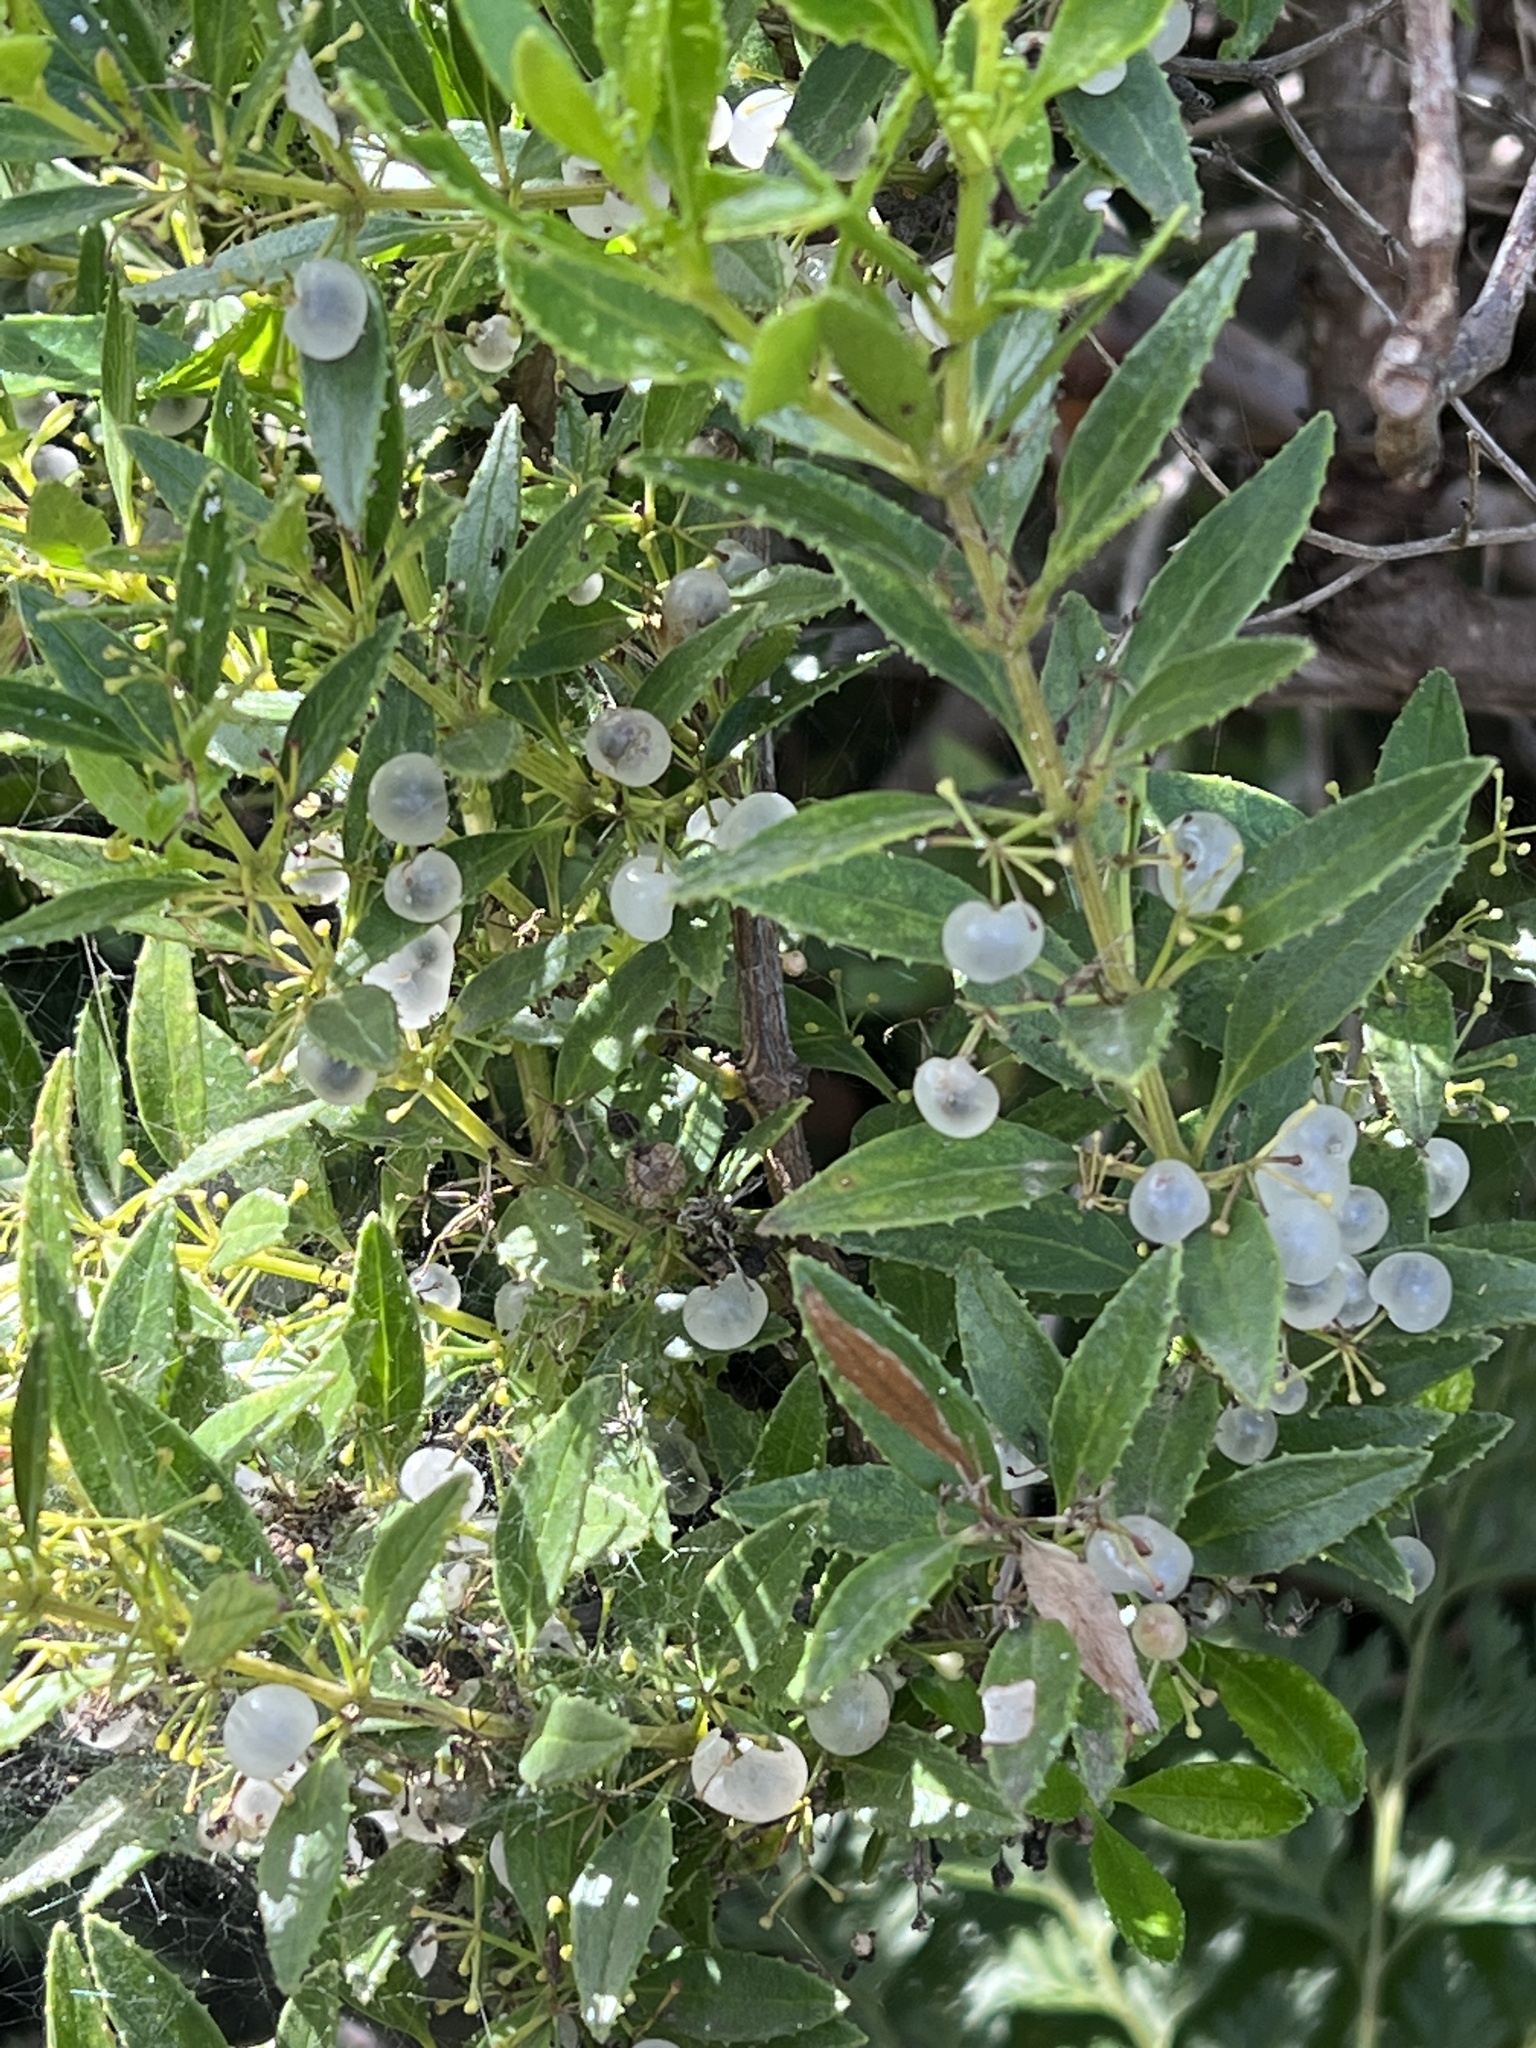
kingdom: Plantae
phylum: Tracheophyta
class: Magnoliopsida
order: Gentianales
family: Rubiaceae
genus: Rubia
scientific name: Rubia fruticosa
